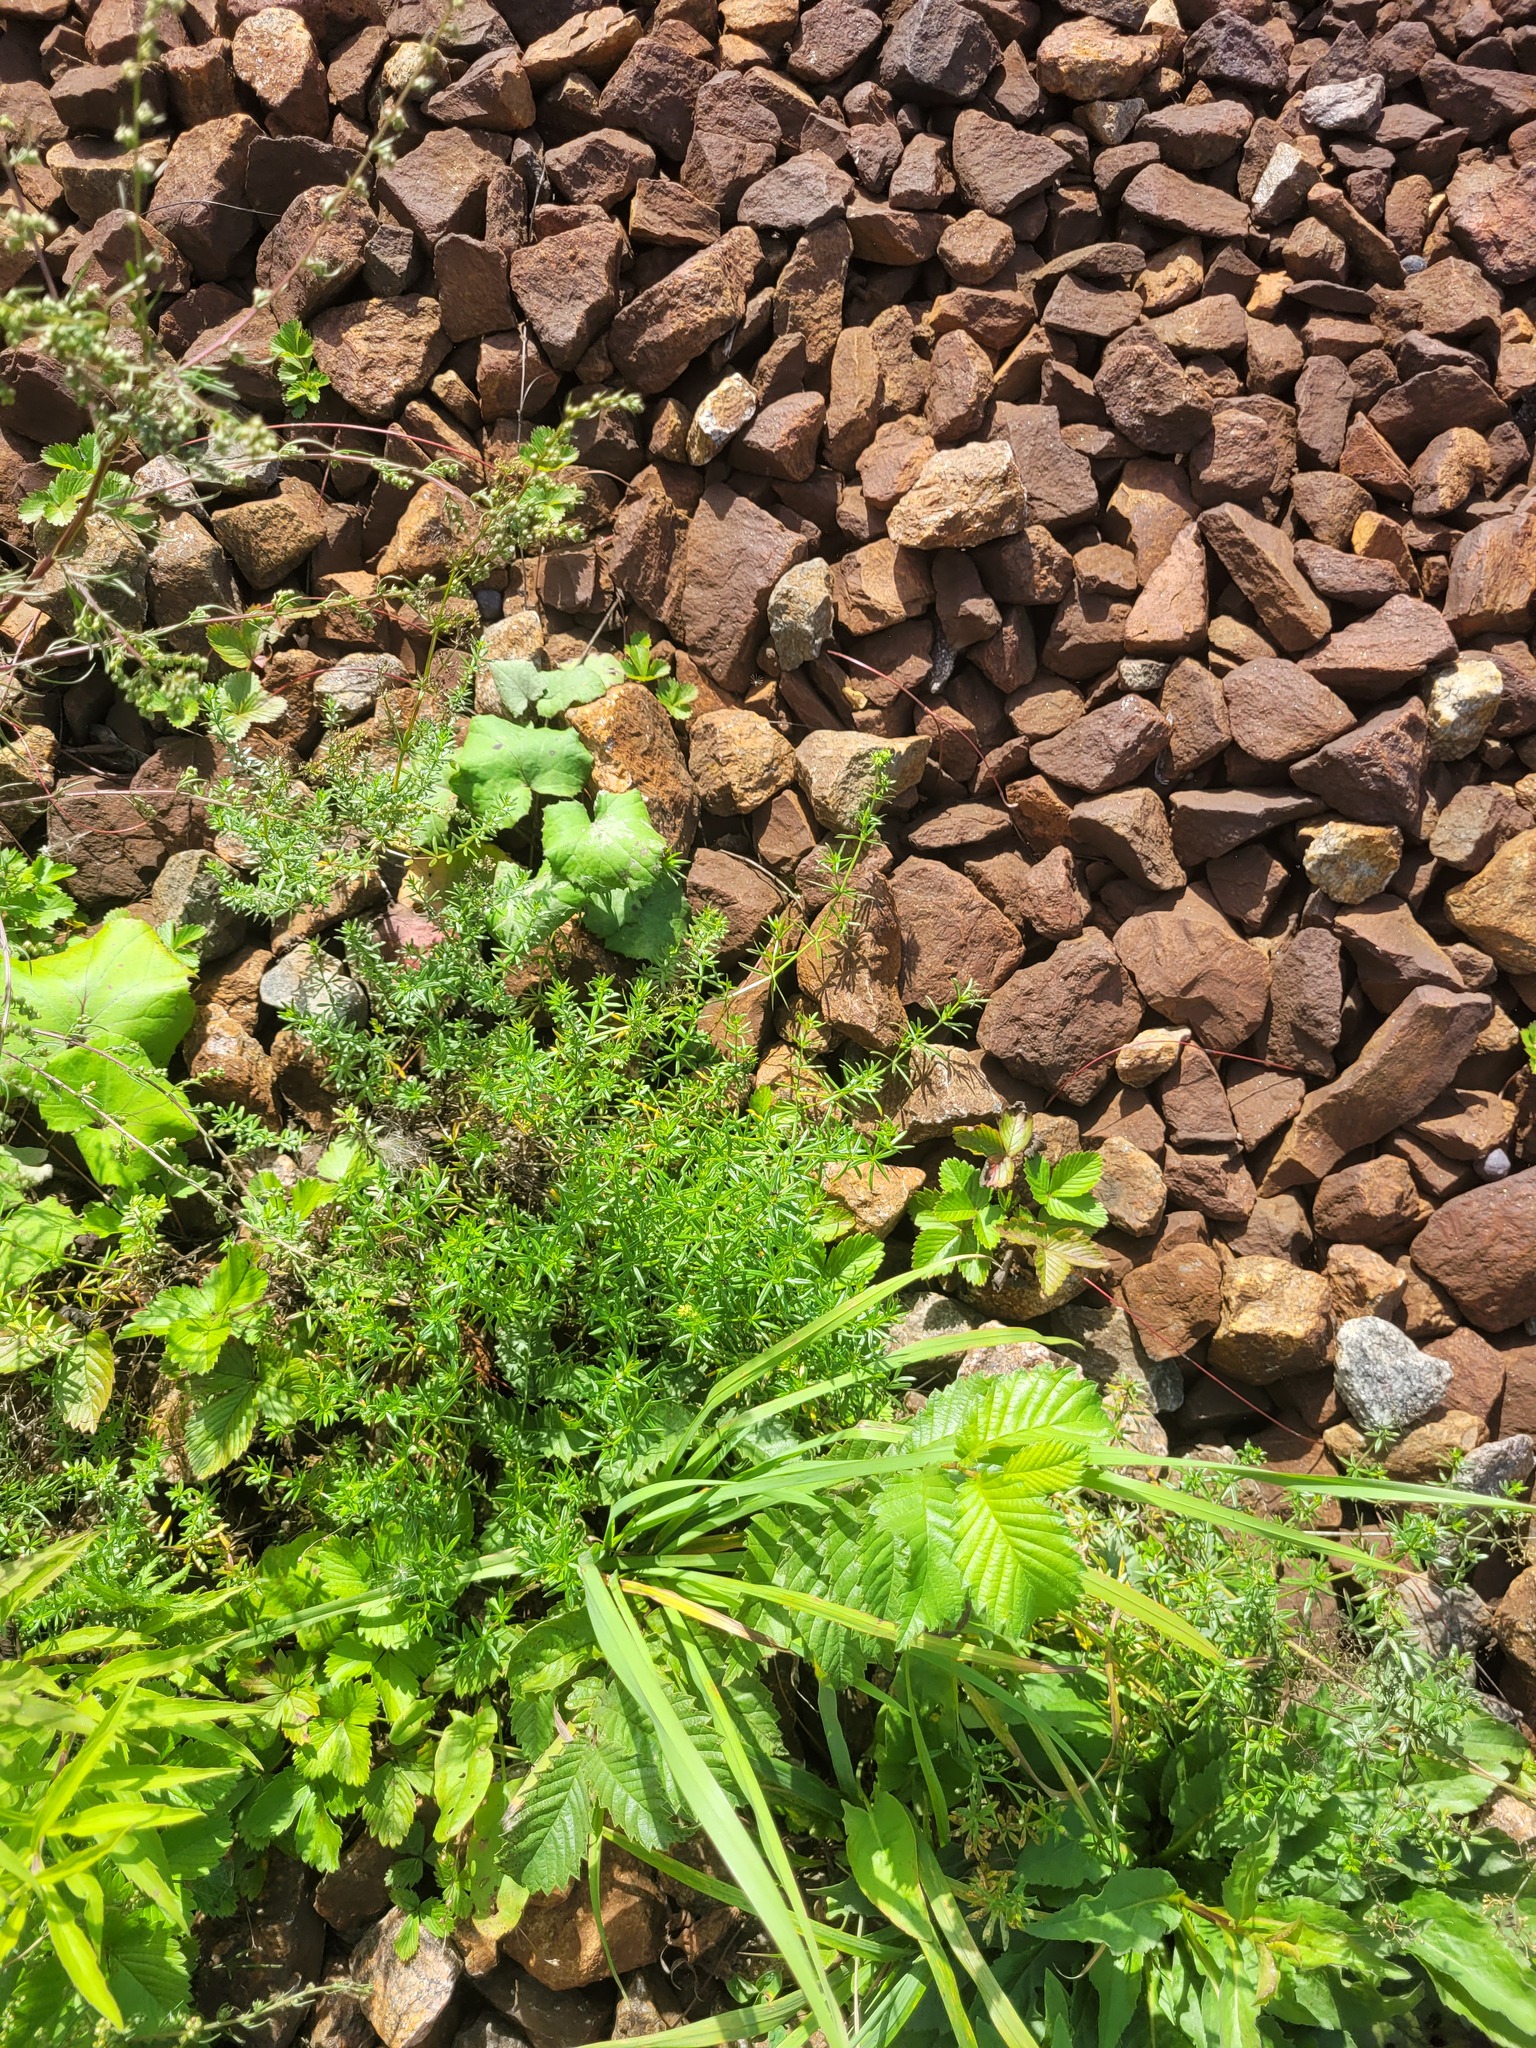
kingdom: Plantae
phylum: Tracheophyta
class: Magnoliopsida
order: Gentianales
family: Rubiaceae
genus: Galium
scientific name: Galium mollugo
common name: Hedge bedstraw
